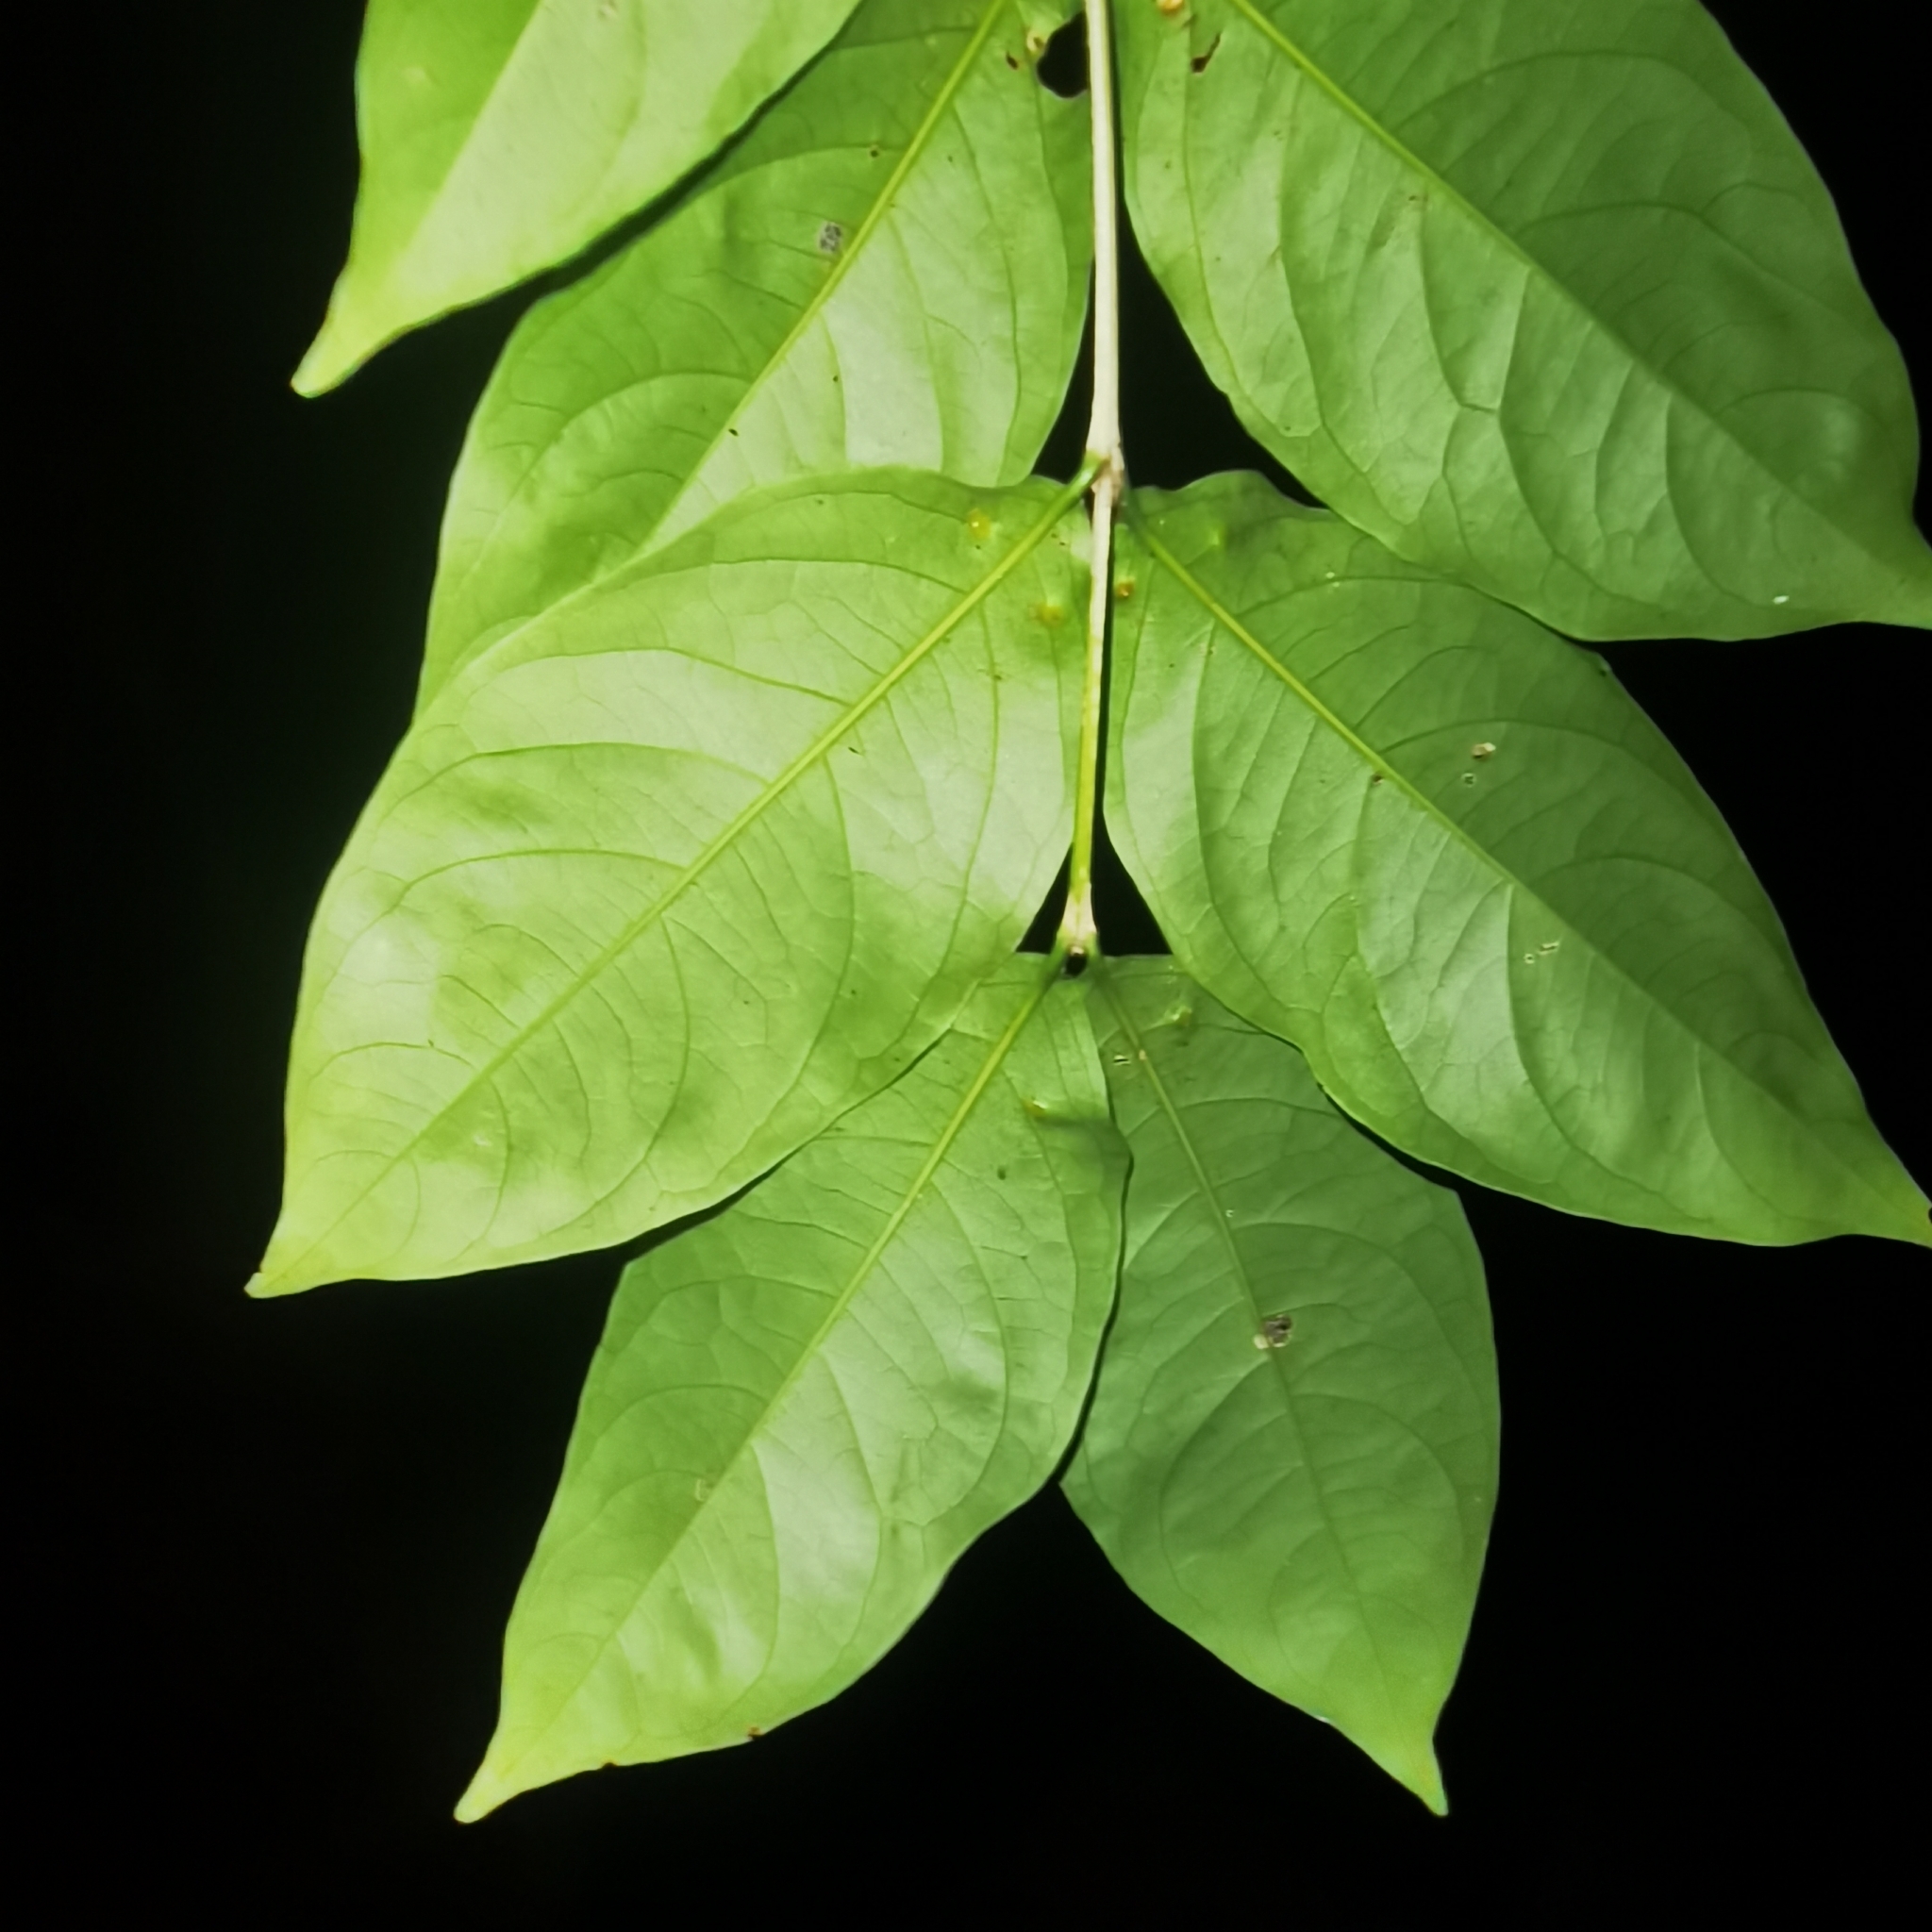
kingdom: Plantae
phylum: Tracheophyta
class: Magnoliopsida
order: Malpighiales
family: Malpighiaceae
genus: Bunchosia
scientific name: Bunchosia polystachya
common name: Woodland coffee
